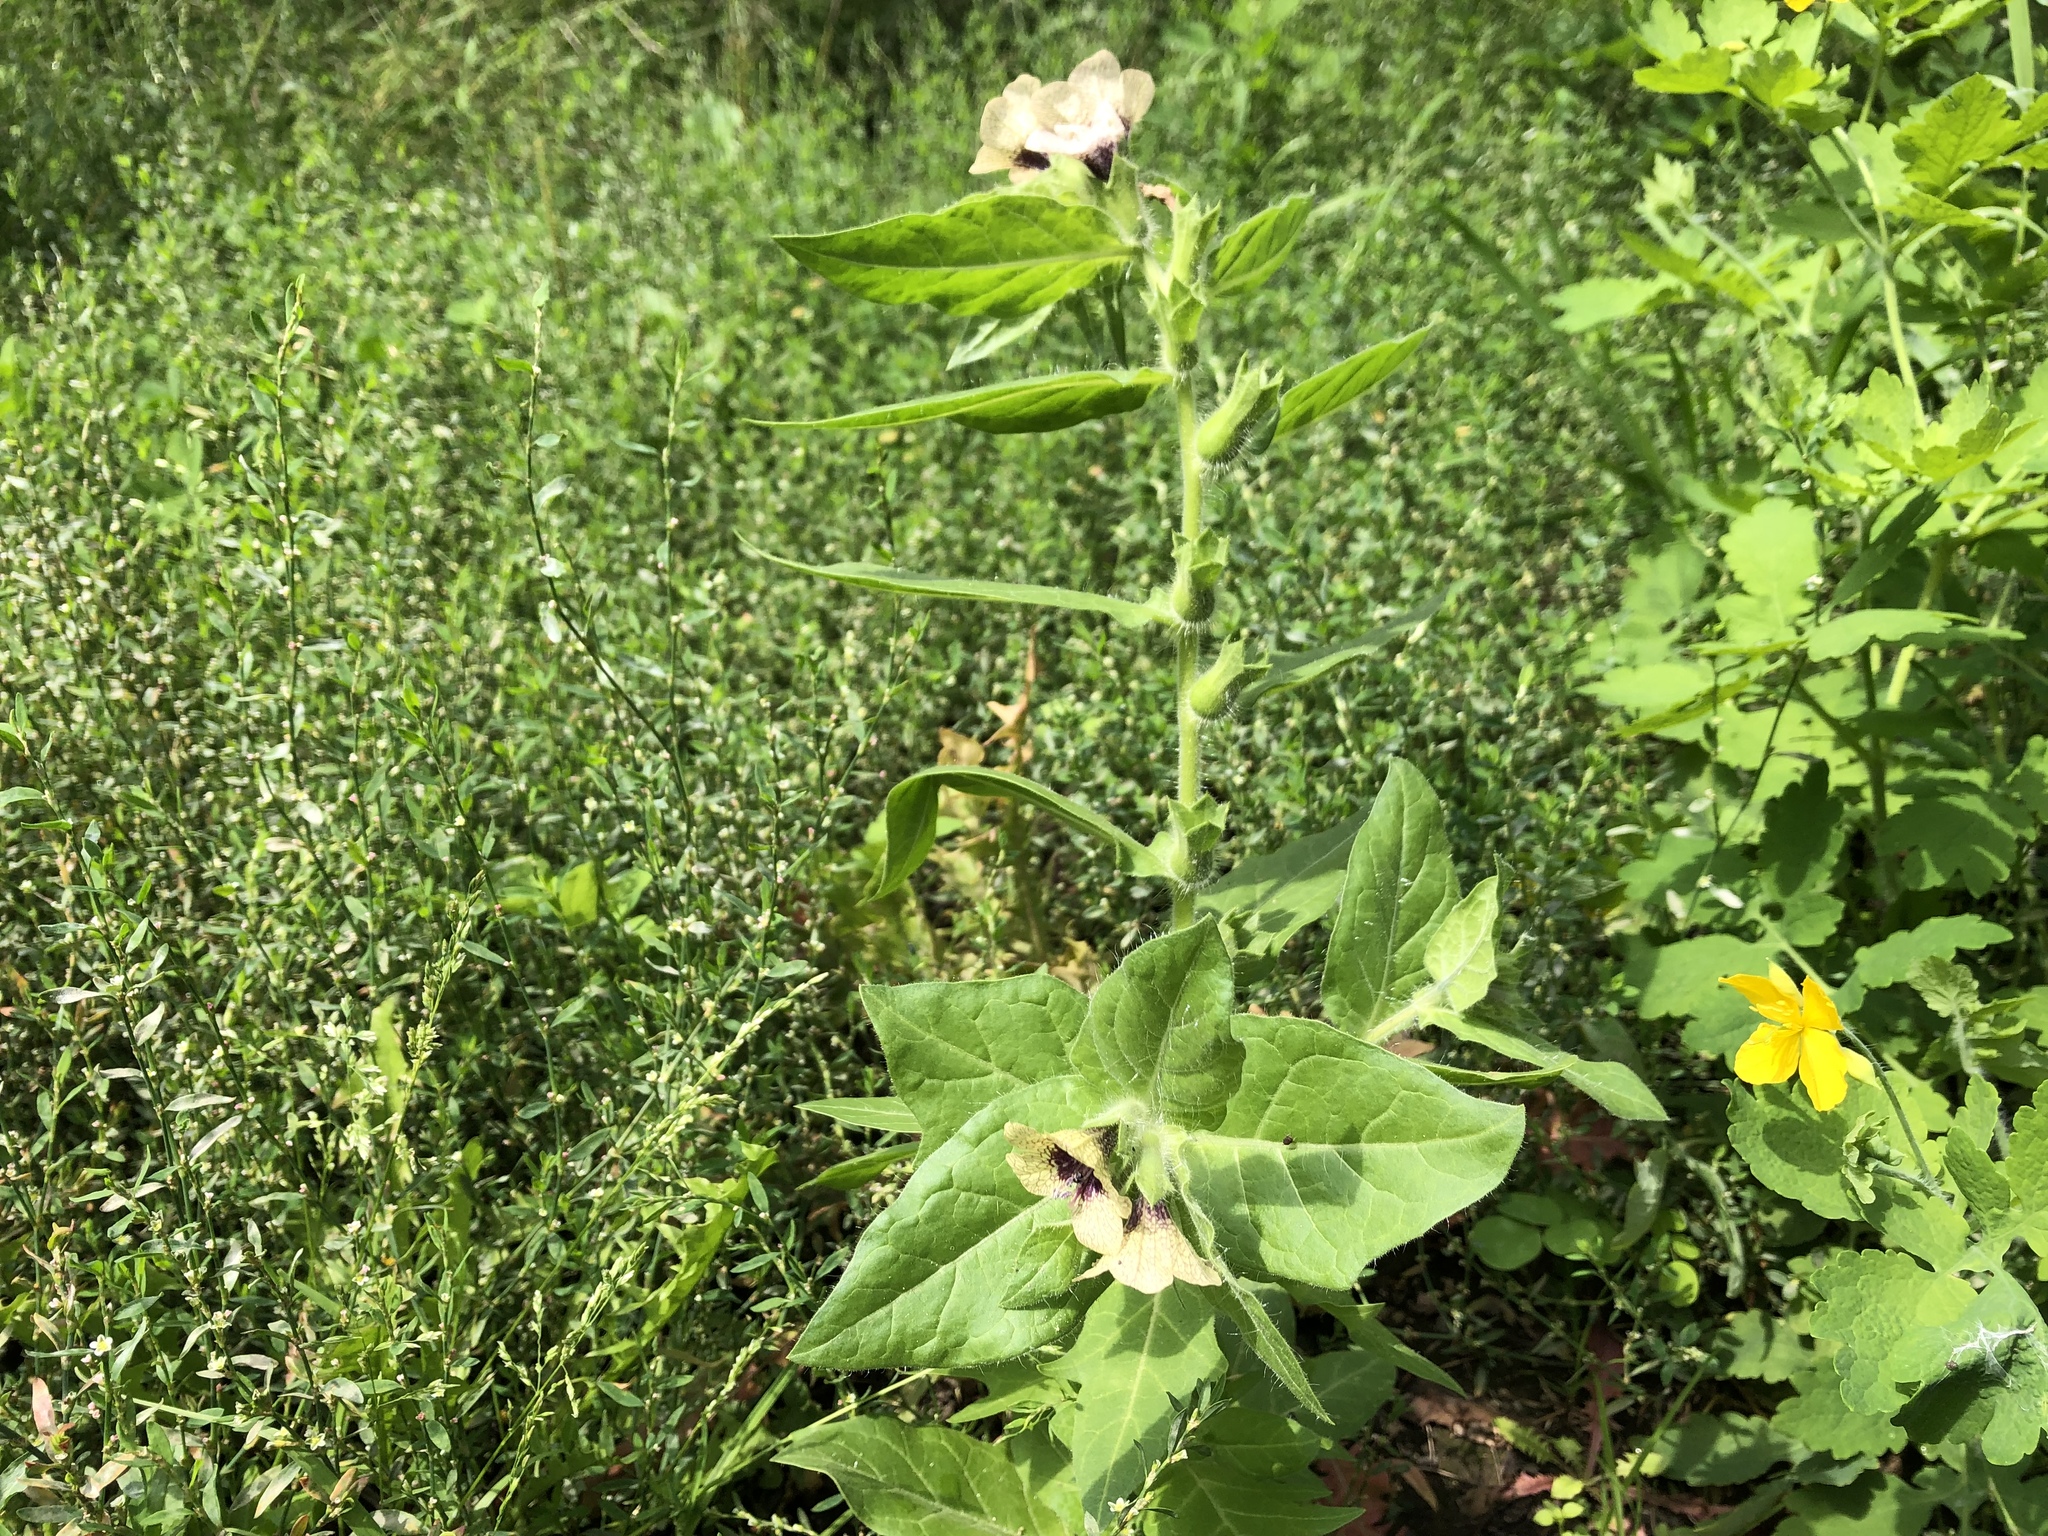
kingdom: Plantae
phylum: Tracheophyta
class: Magnoliopsida
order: Solanales
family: Solanaceae
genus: Hyoscyamus
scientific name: Hyoscyamus niger
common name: Henbane
